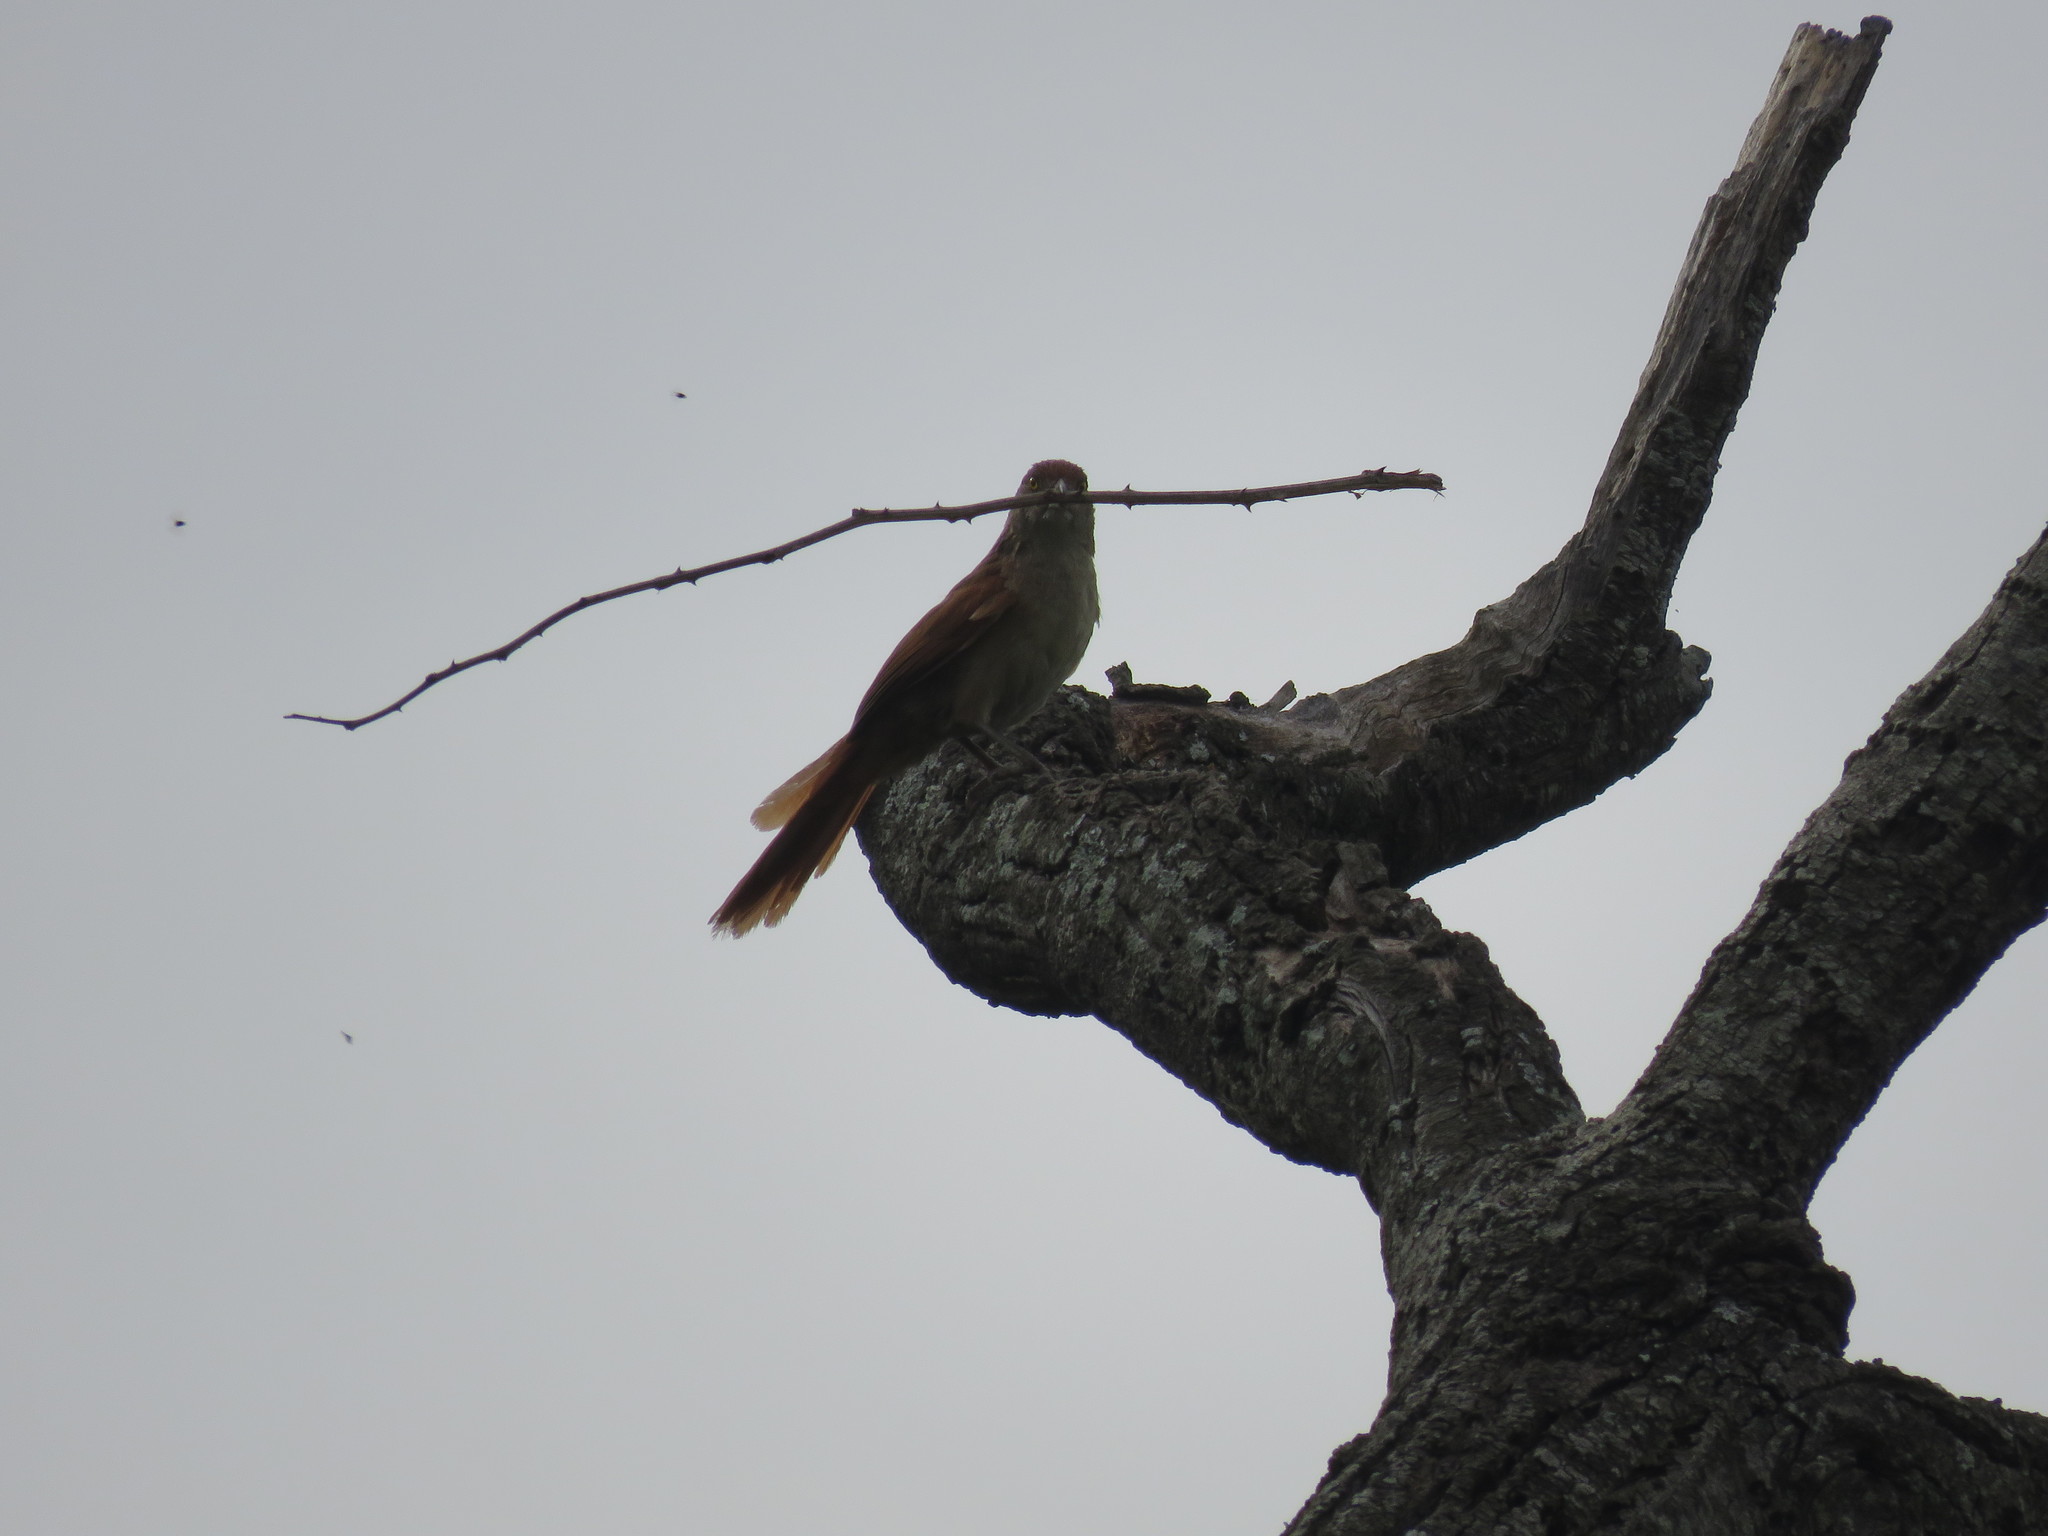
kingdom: Animalia
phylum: Chordata
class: Aves
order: Passeriformes
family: Furnariidae
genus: Phacellodomus
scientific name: Phacellodomus ruber
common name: Greater thornbird
